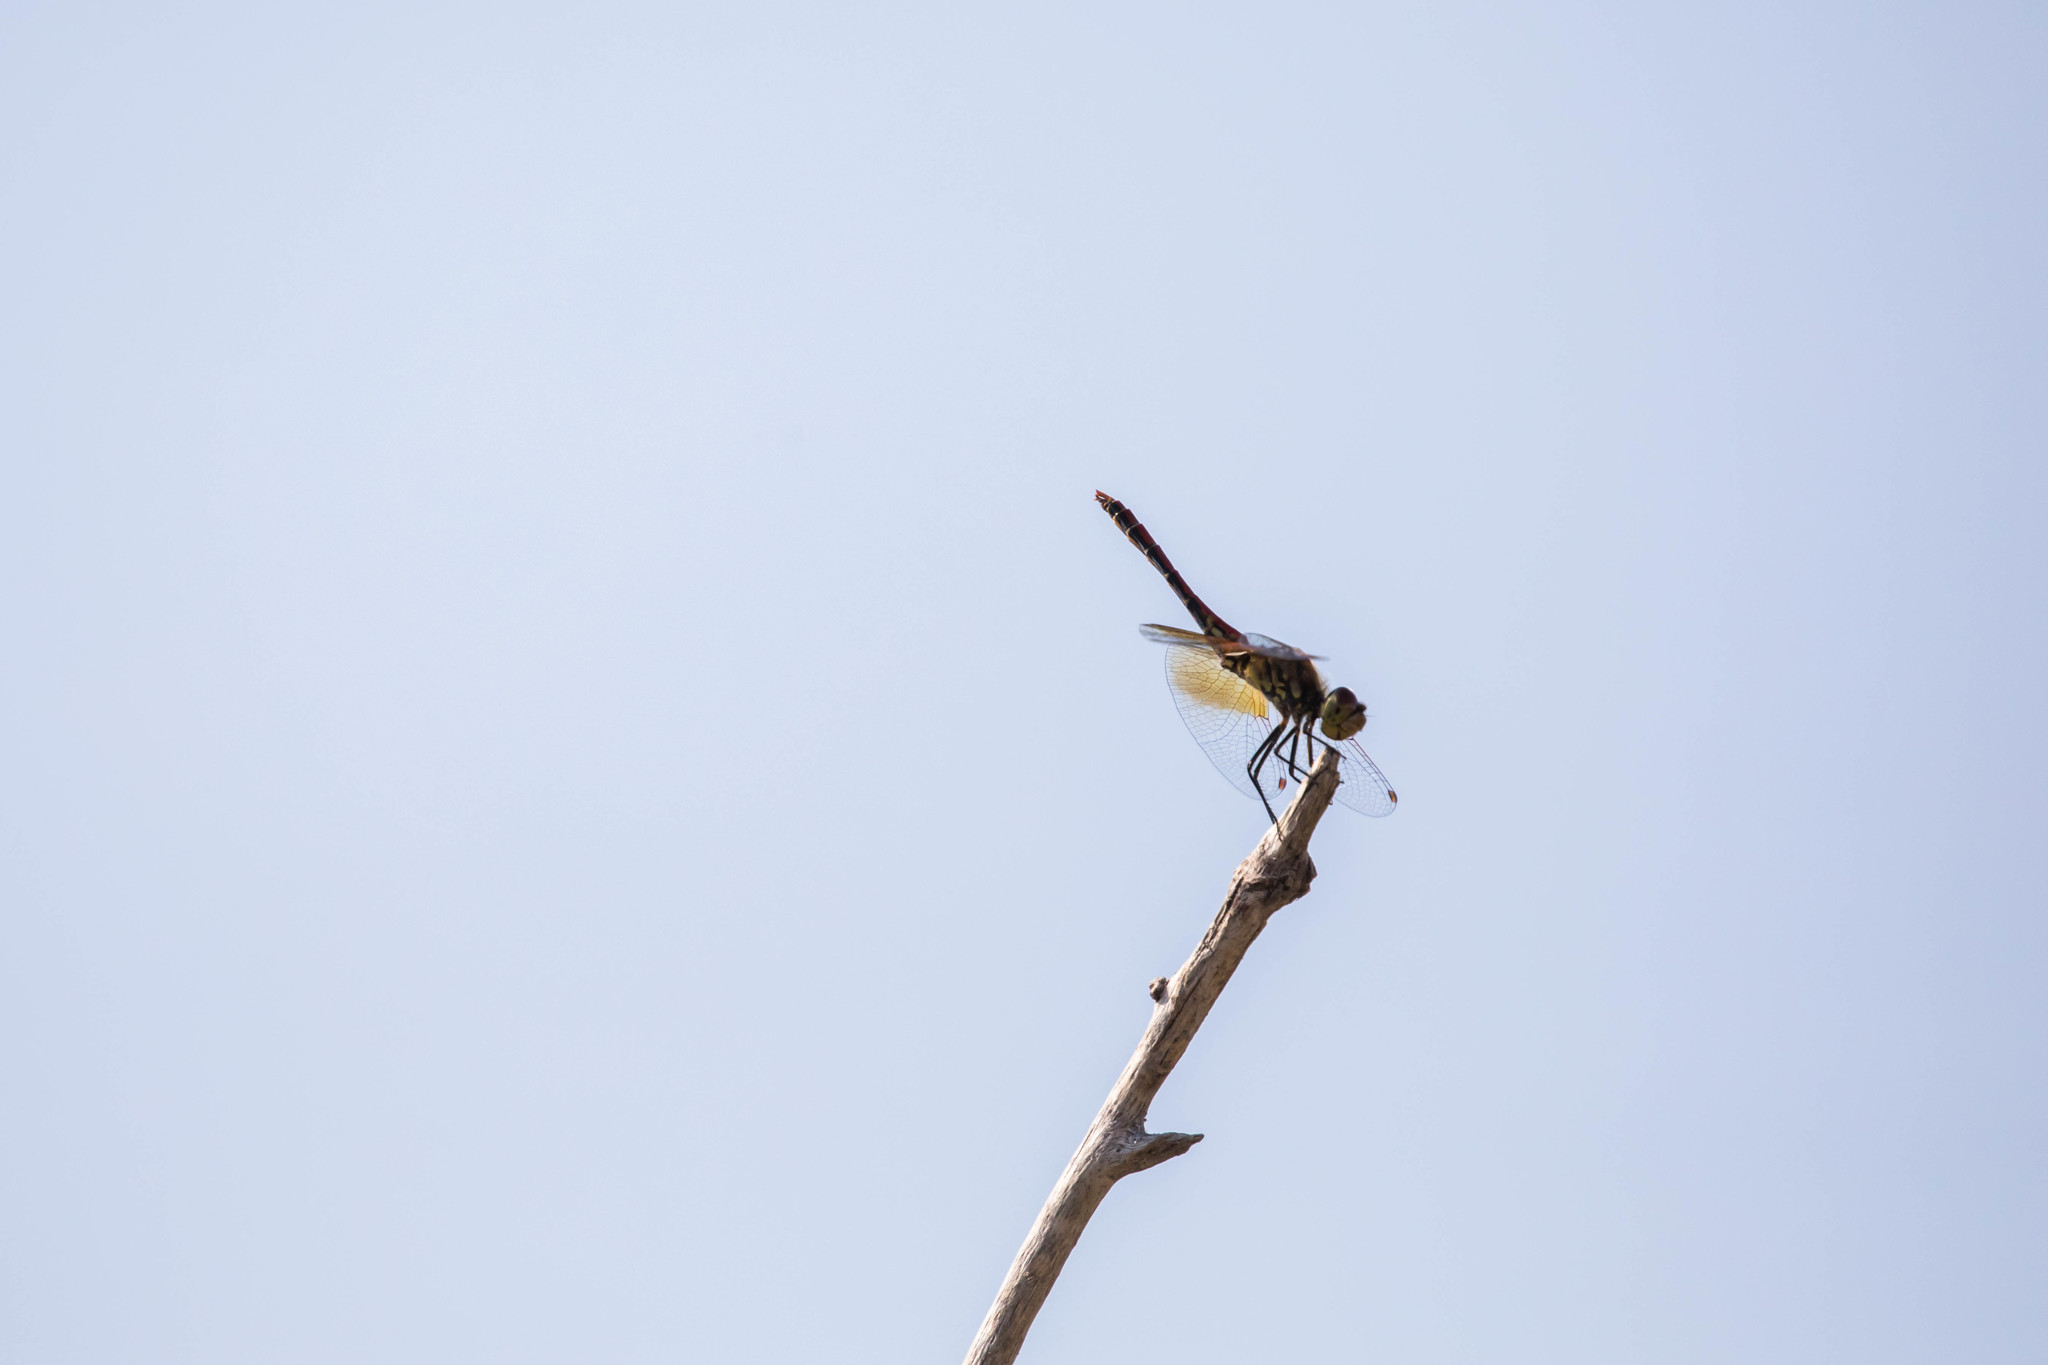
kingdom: Animalia
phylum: Arthropoda
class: Insecta
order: Odonata
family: Libellulidae
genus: Sympetrum
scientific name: Sympetrum semicinctum
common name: Band-winged meadowhawk
